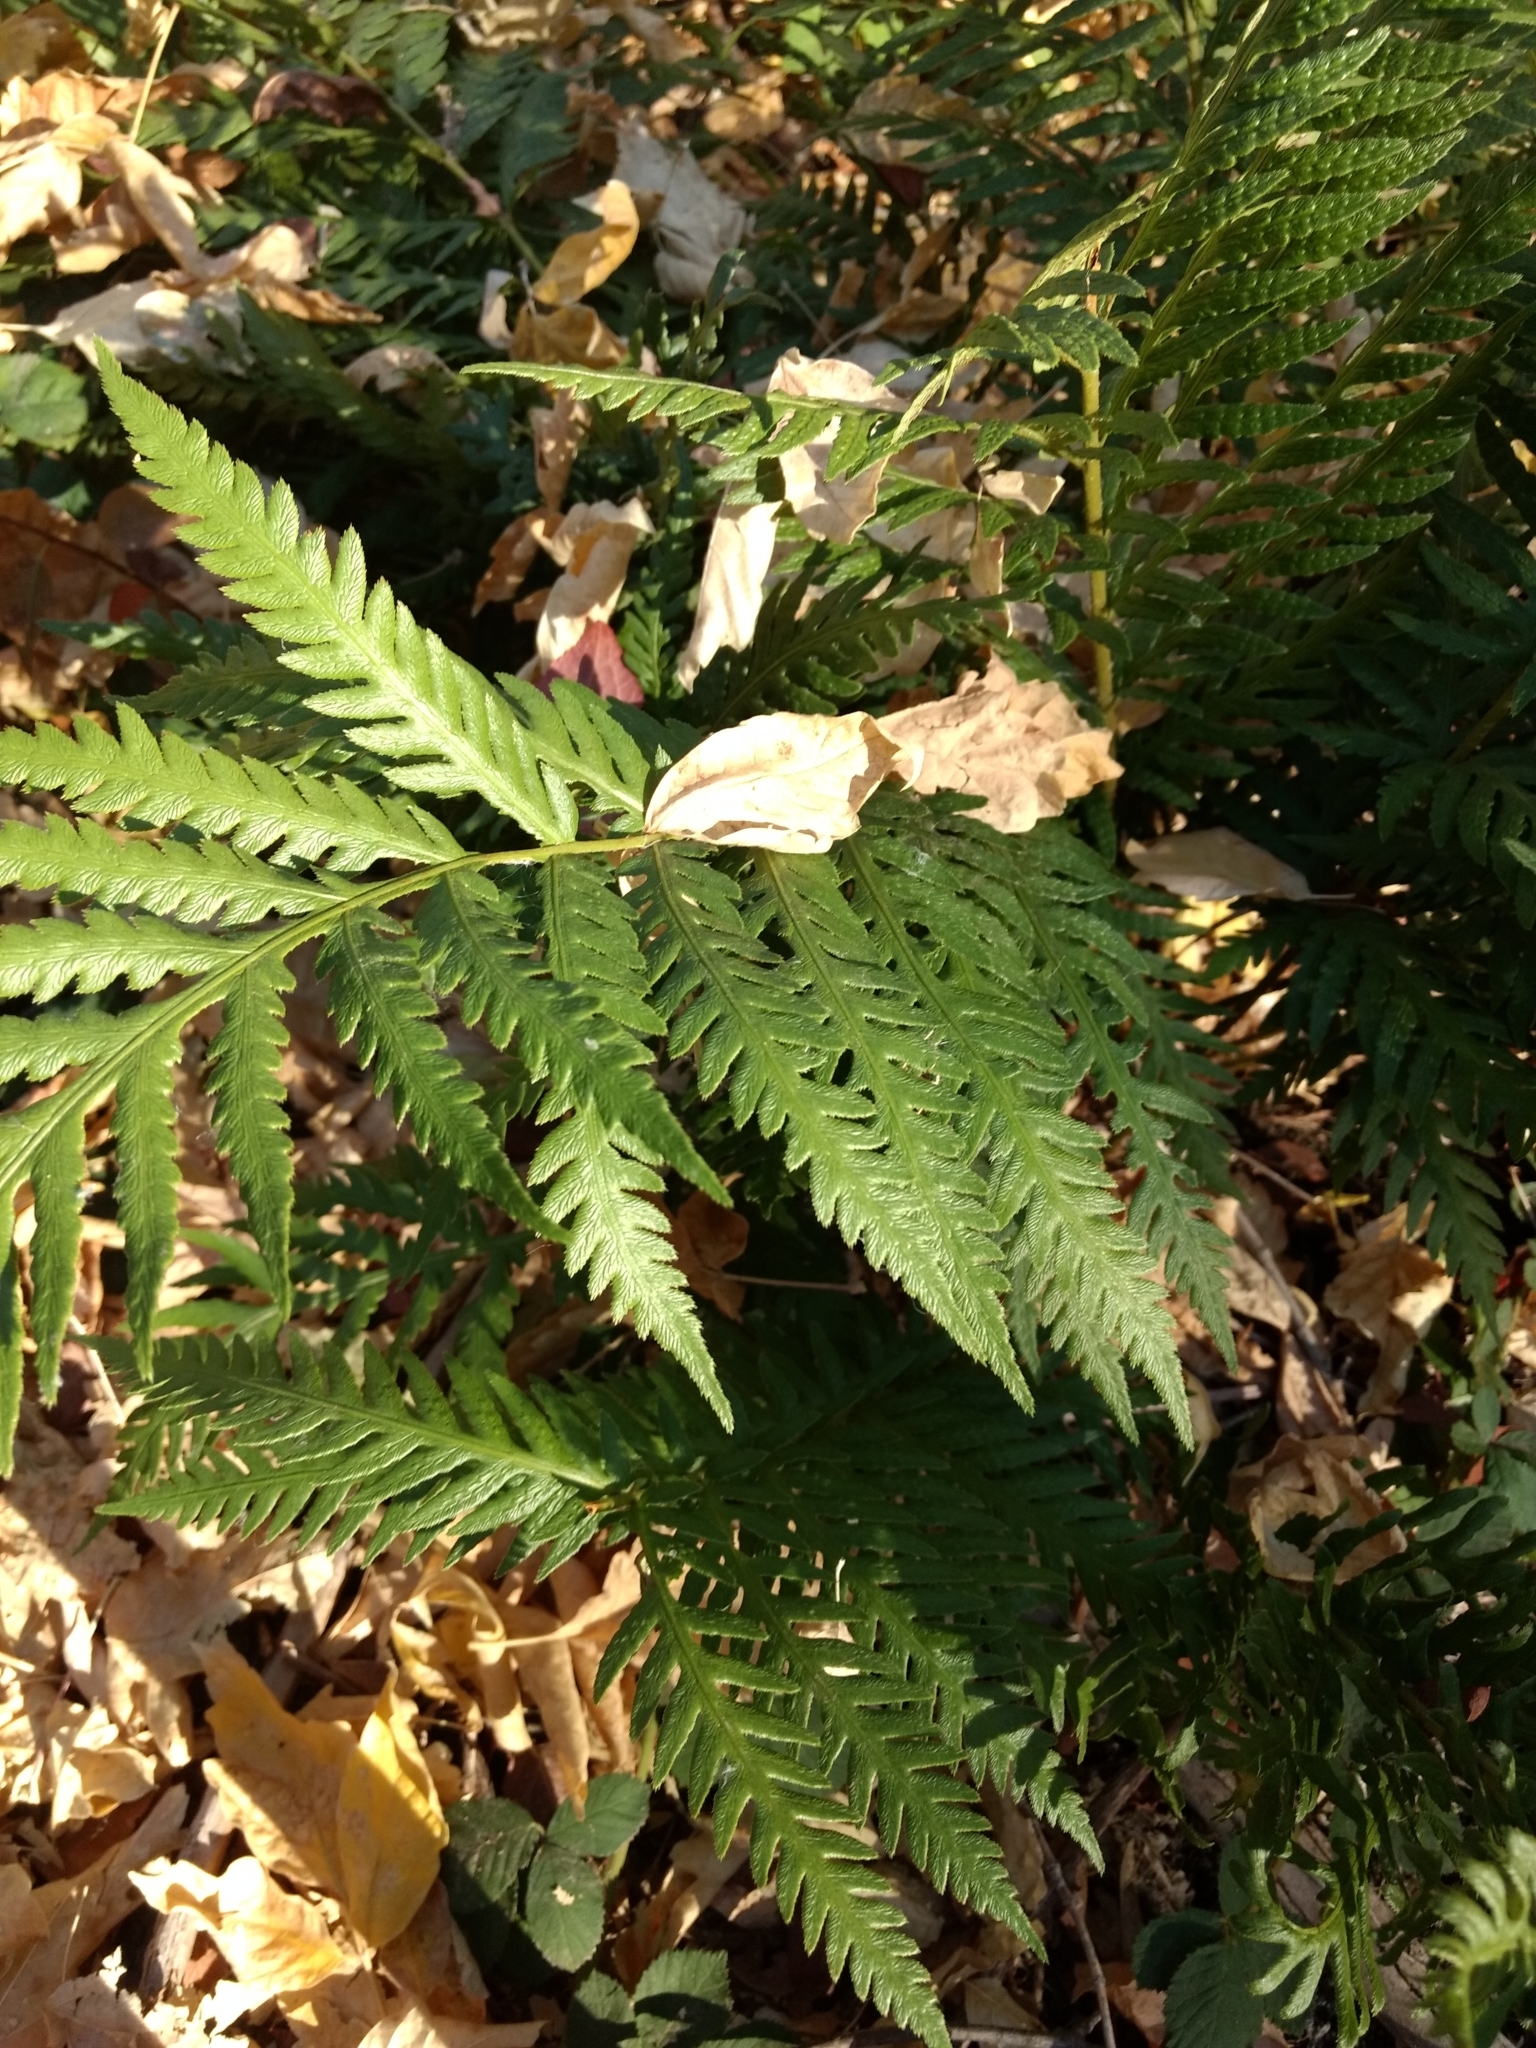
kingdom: Plantae
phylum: Tracheophyta
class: Polypodiopsida
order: Polypodiales
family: Blechnaceae
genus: Woodwardia
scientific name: Woodwardia fimbriata
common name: Giant chain fern
